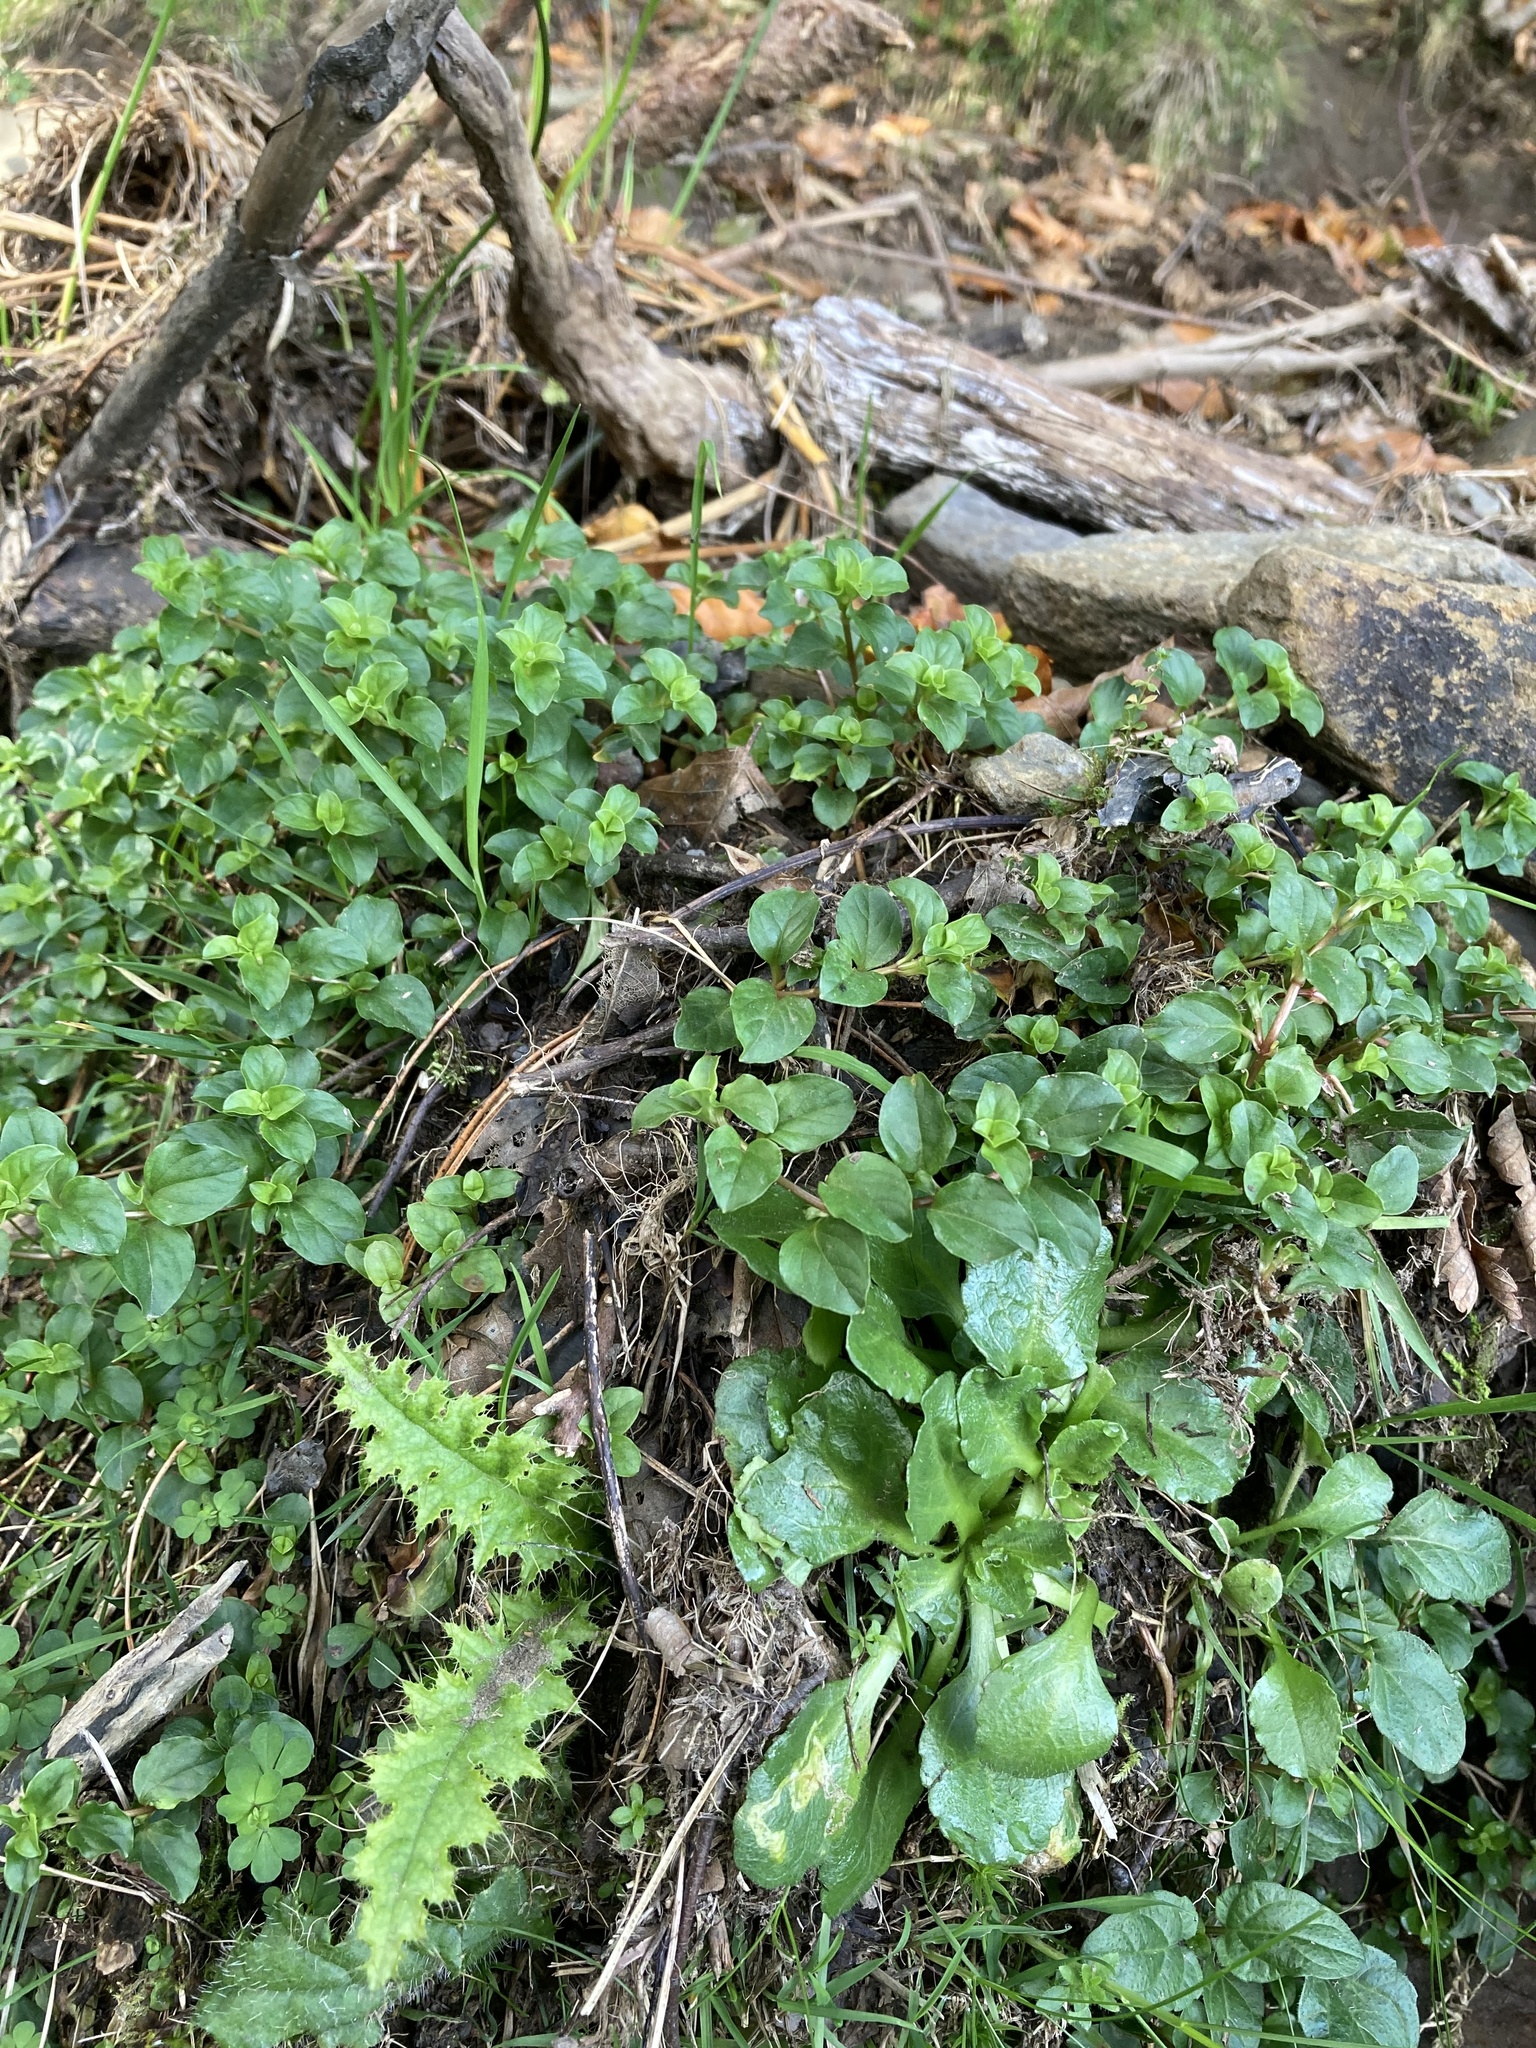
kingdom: Plantae
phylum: Tracheophyta
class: Magnoliopsida
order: Ericales
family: Primulaceae
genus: Lysimachia
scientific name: Lysimachia nemorum
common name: Yellow pimpernel
